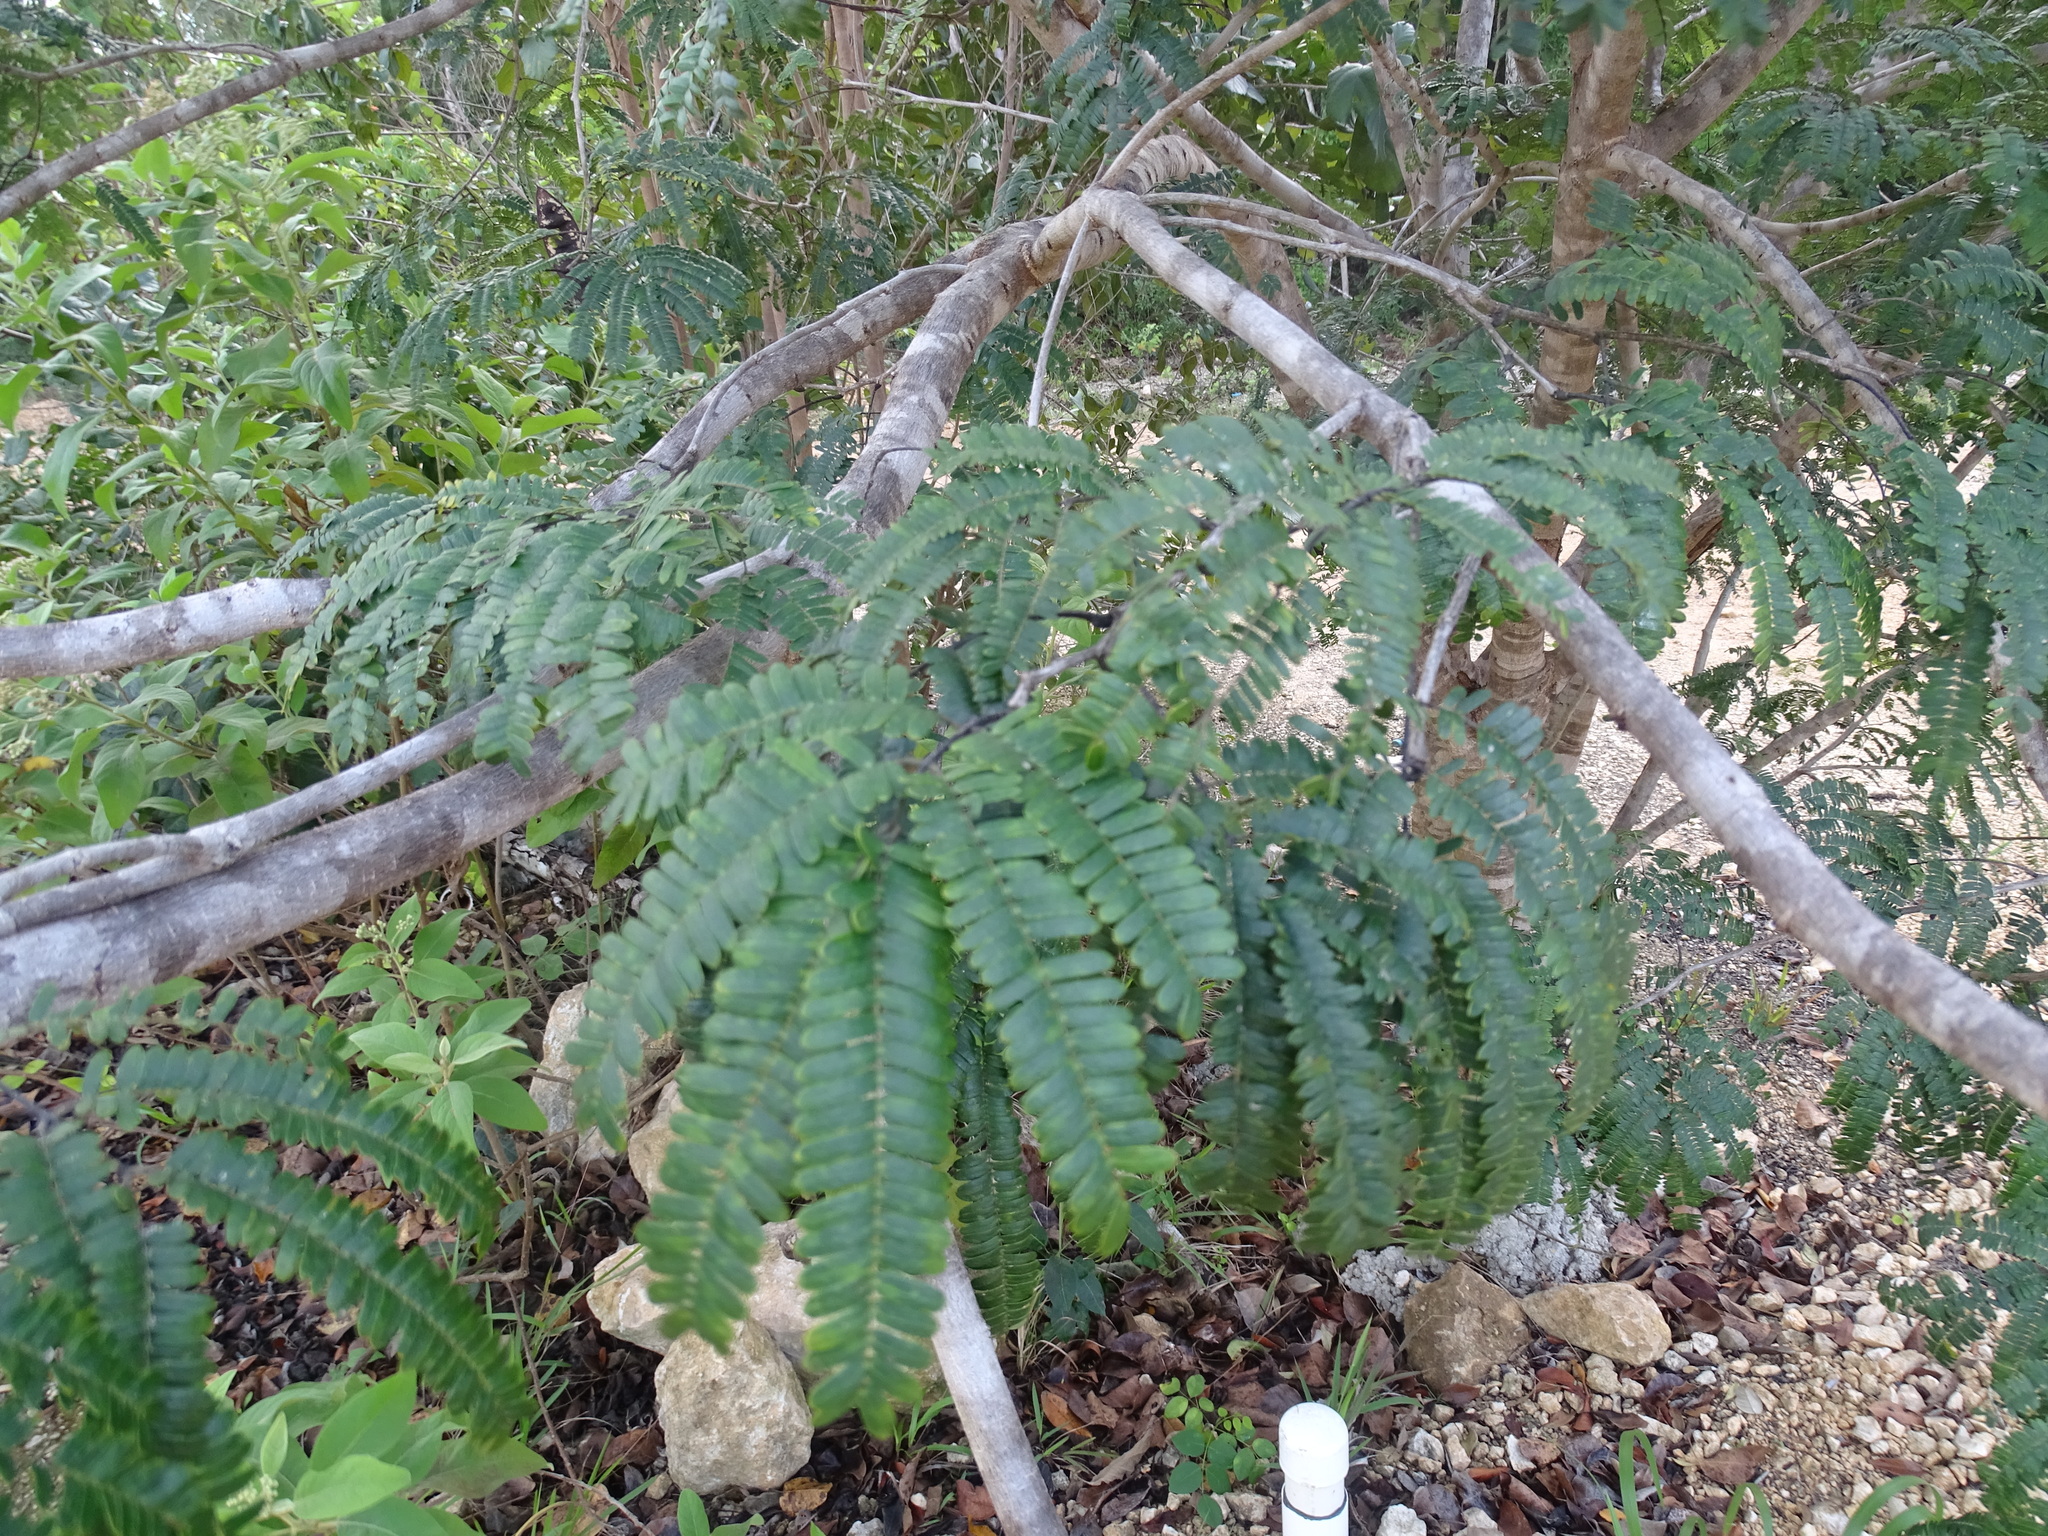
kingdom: Plantae
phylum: Tracheophyta
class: Magnoliopsida
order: Fabales
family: Fabaceae
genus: Lysiloma
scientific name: Lysiloma latisiliquum
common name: Wild tamarind
